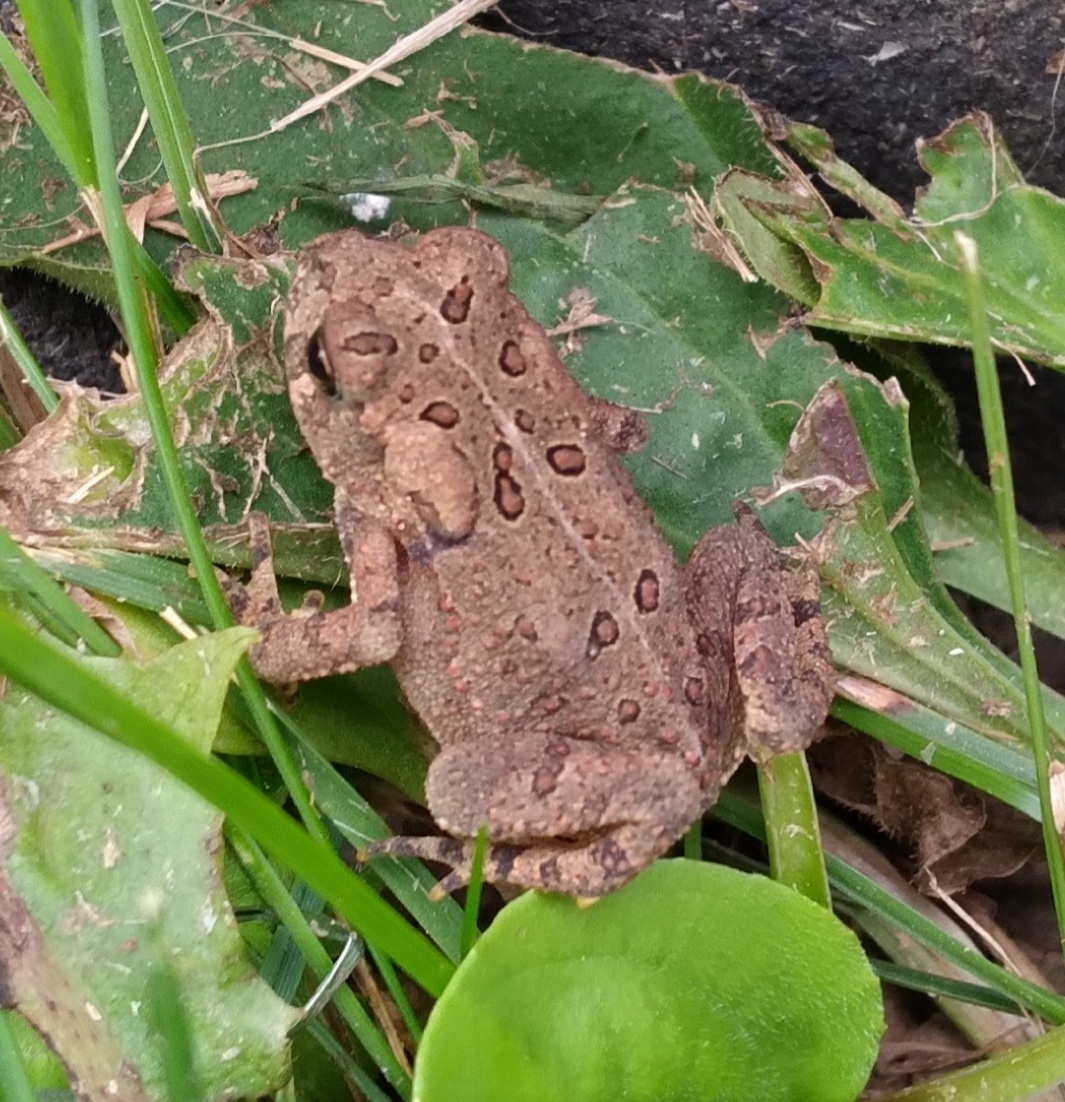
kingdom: Animalia
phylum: Chordata
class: Amphibia
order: Anura
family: Bufonidae
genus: Anaxyrus
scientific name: Anaxyrus americanus
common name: American toad
